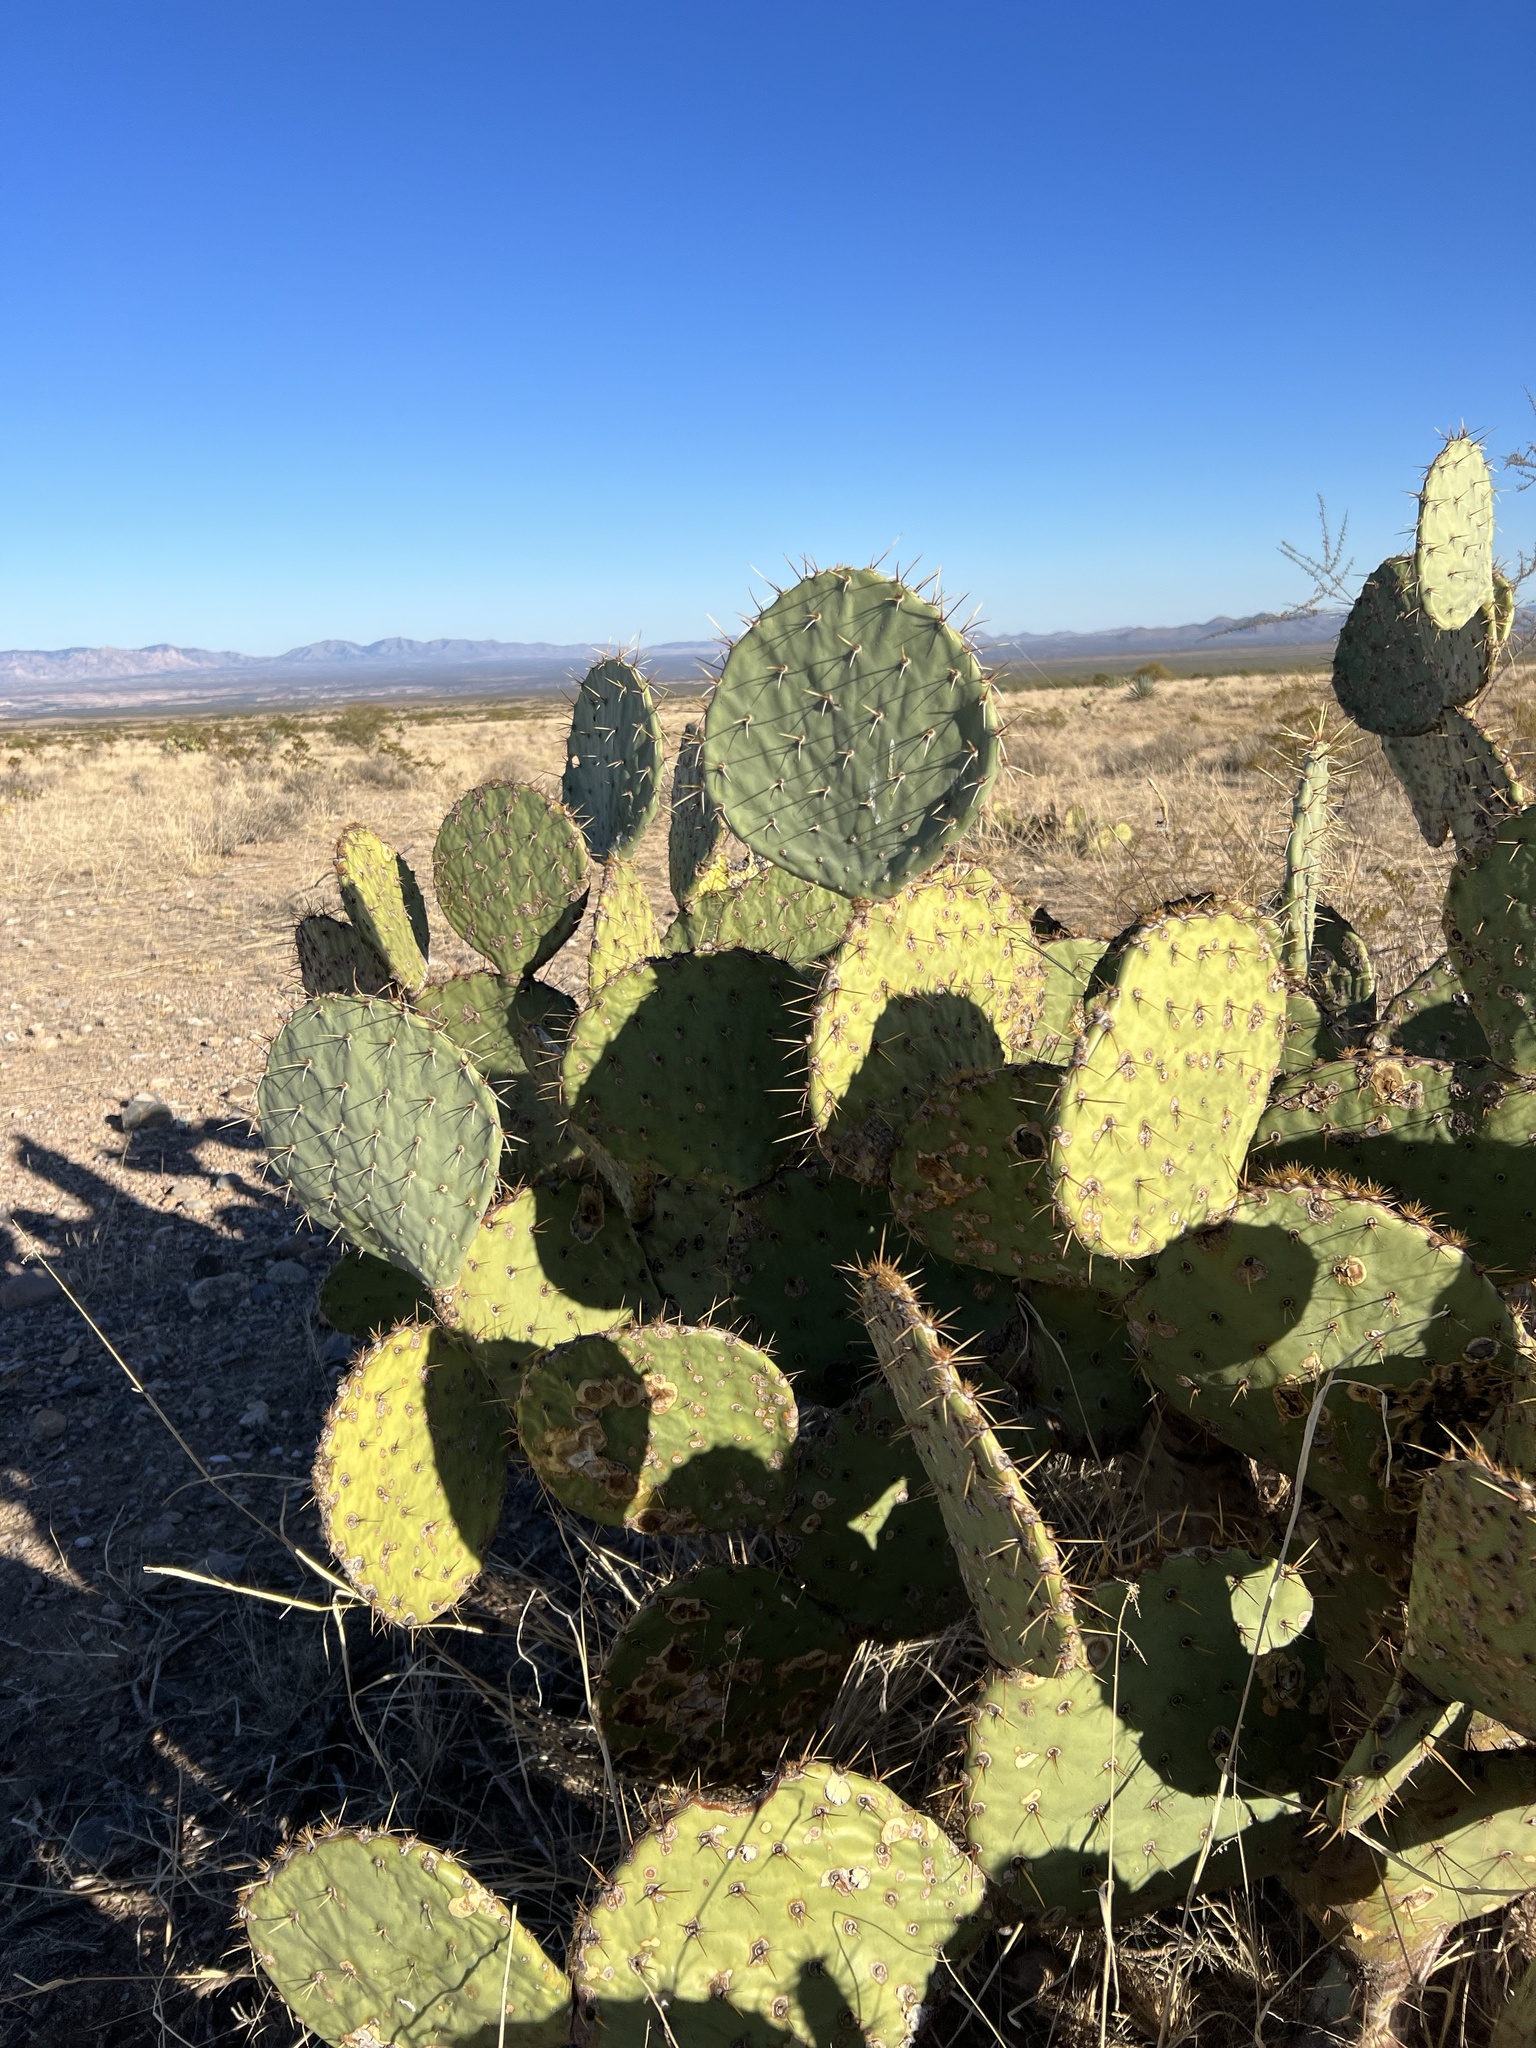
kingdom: Plantae
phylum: Tracheophyta
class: Magnoliopsida
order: Caryophyllales
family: Cactaceae
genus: Opuntia
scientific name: Opuntia engelmannii
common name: Cactus-apple
